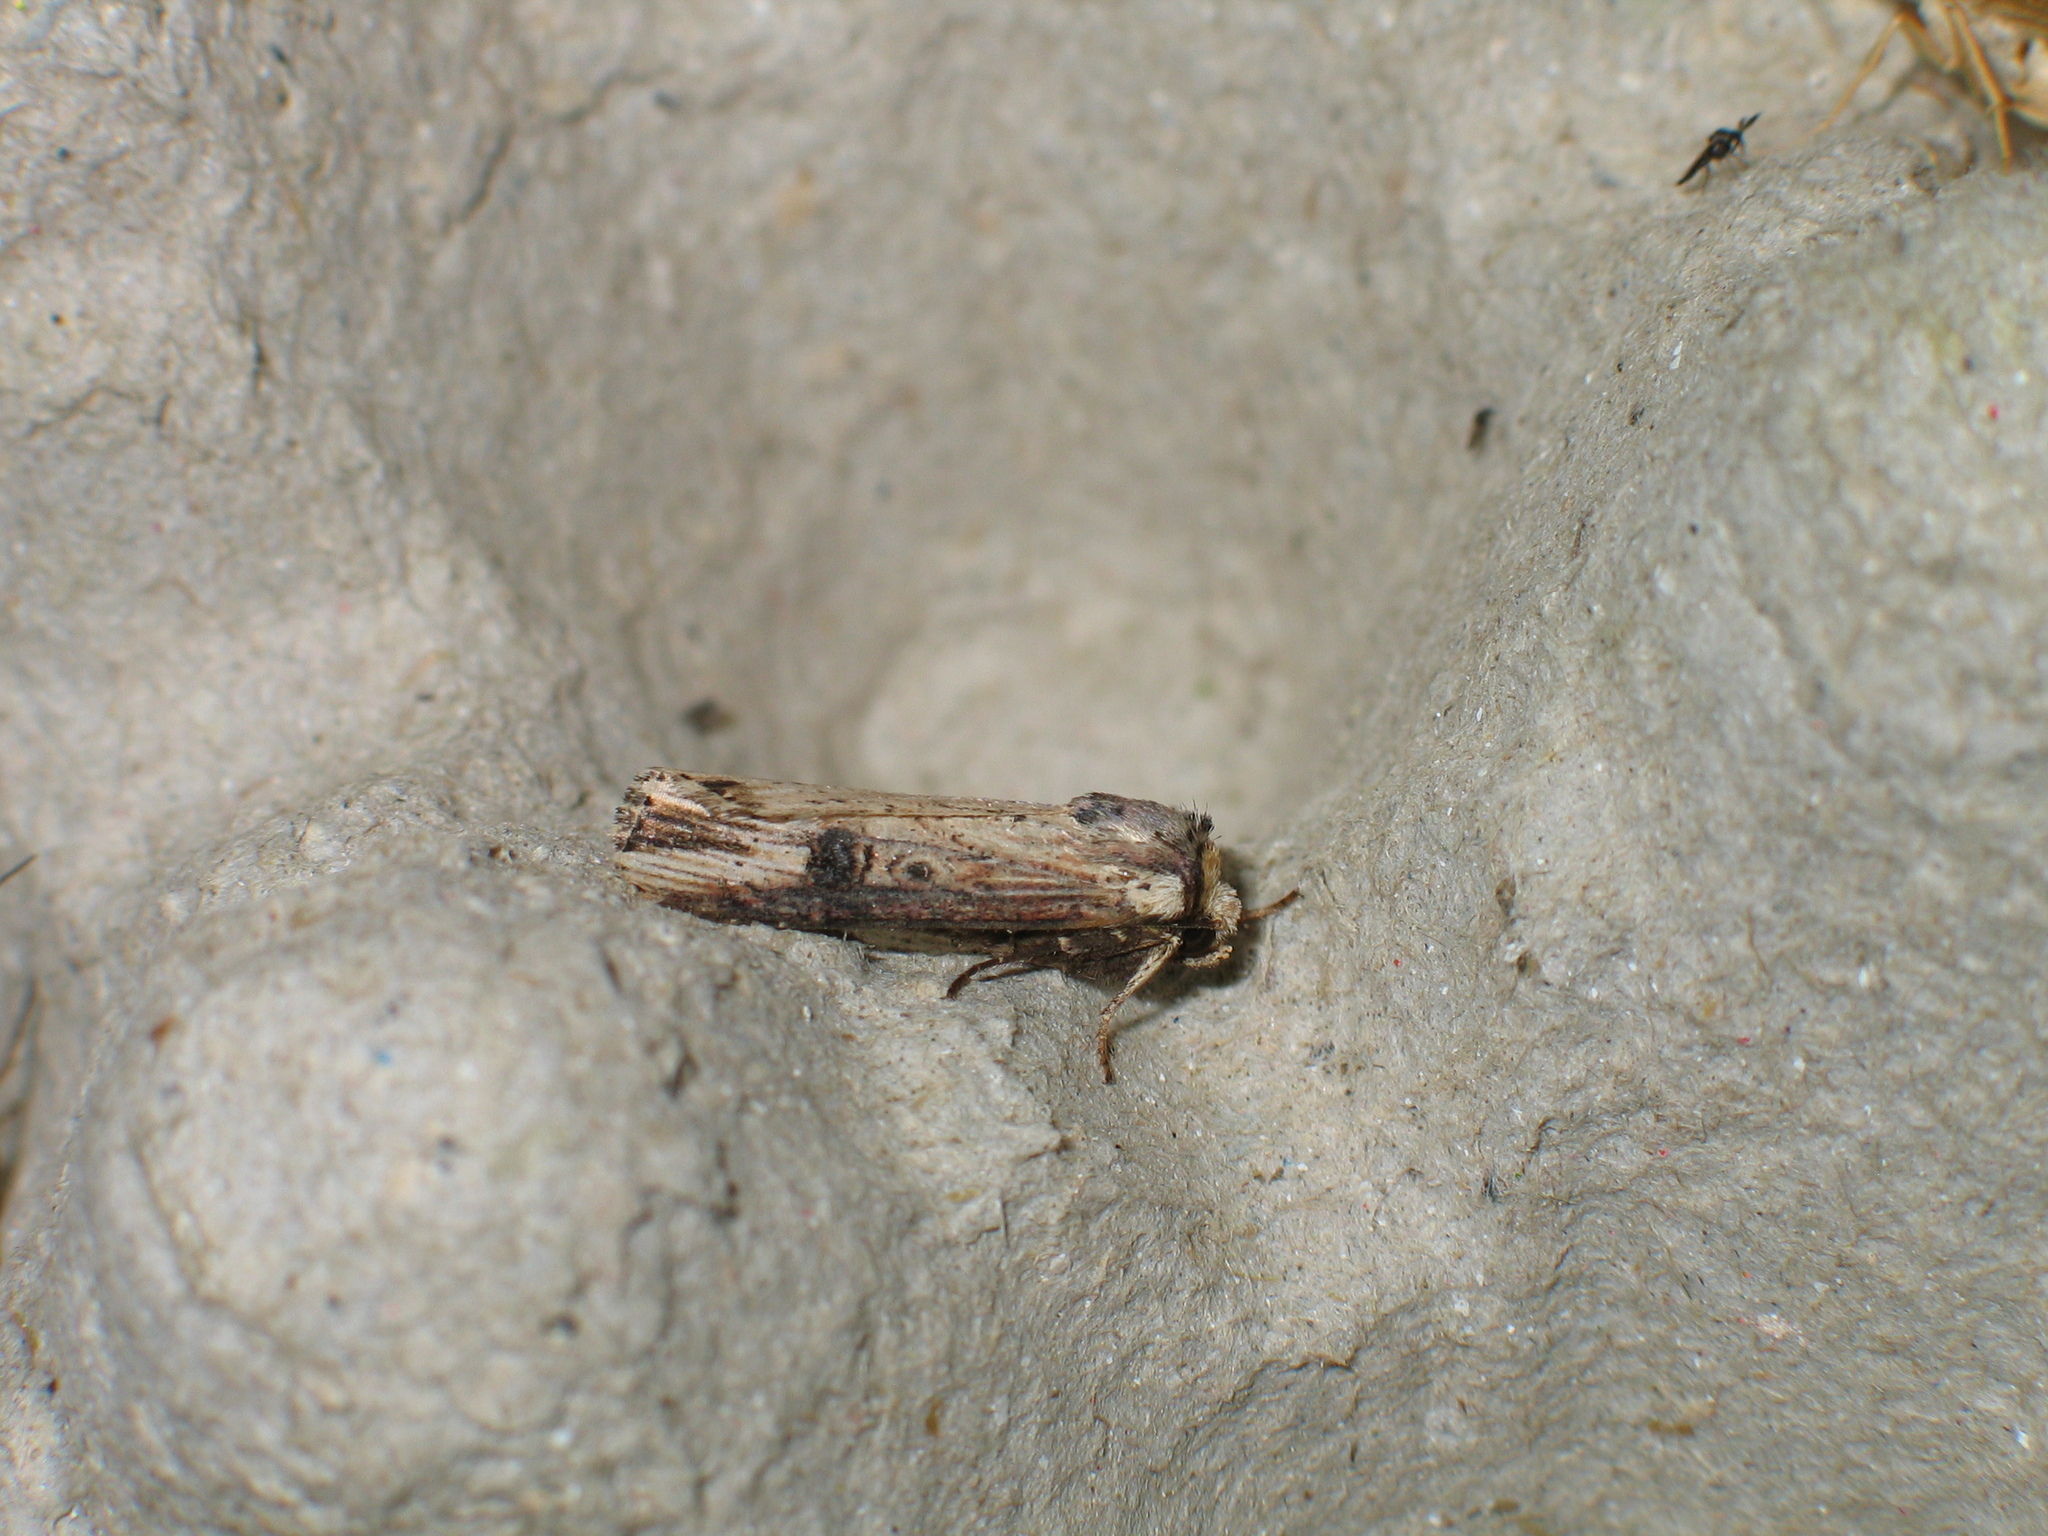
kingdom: Animalia
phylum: Arthropoda
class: Insecta
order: Lepidoptera
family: Noctuidae
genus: Axylia
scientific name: Axylia putris
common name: Flame
